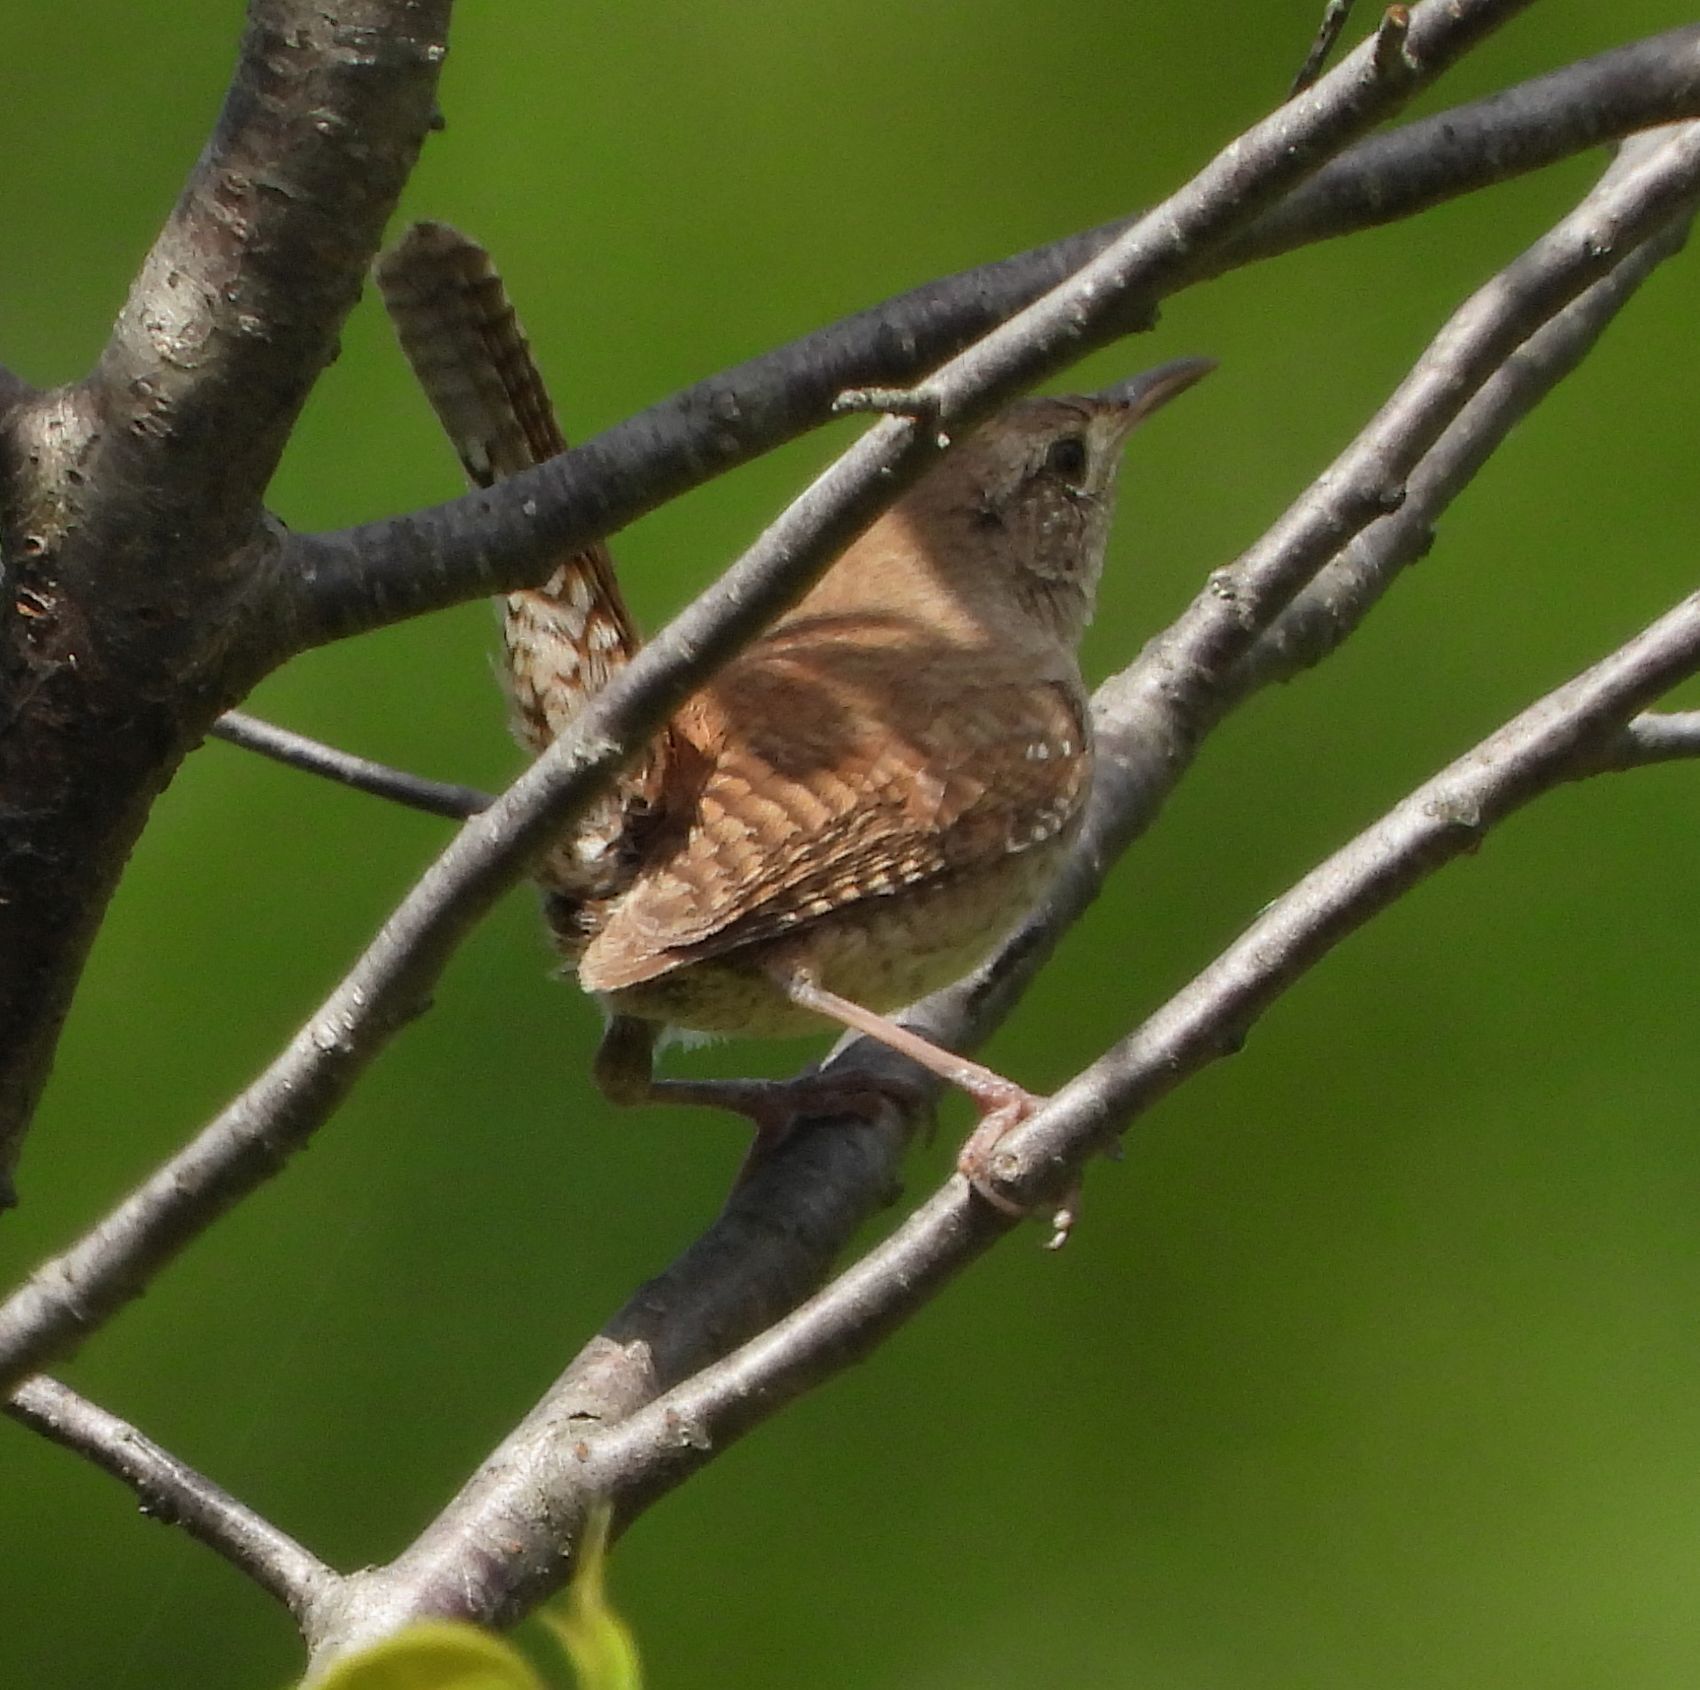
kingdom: Animalia
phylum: Chordata
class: Aves
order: Passeriformes
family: Troglodytidae
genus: Troglodytes
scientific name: Troglodytes aedon
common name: House wren
